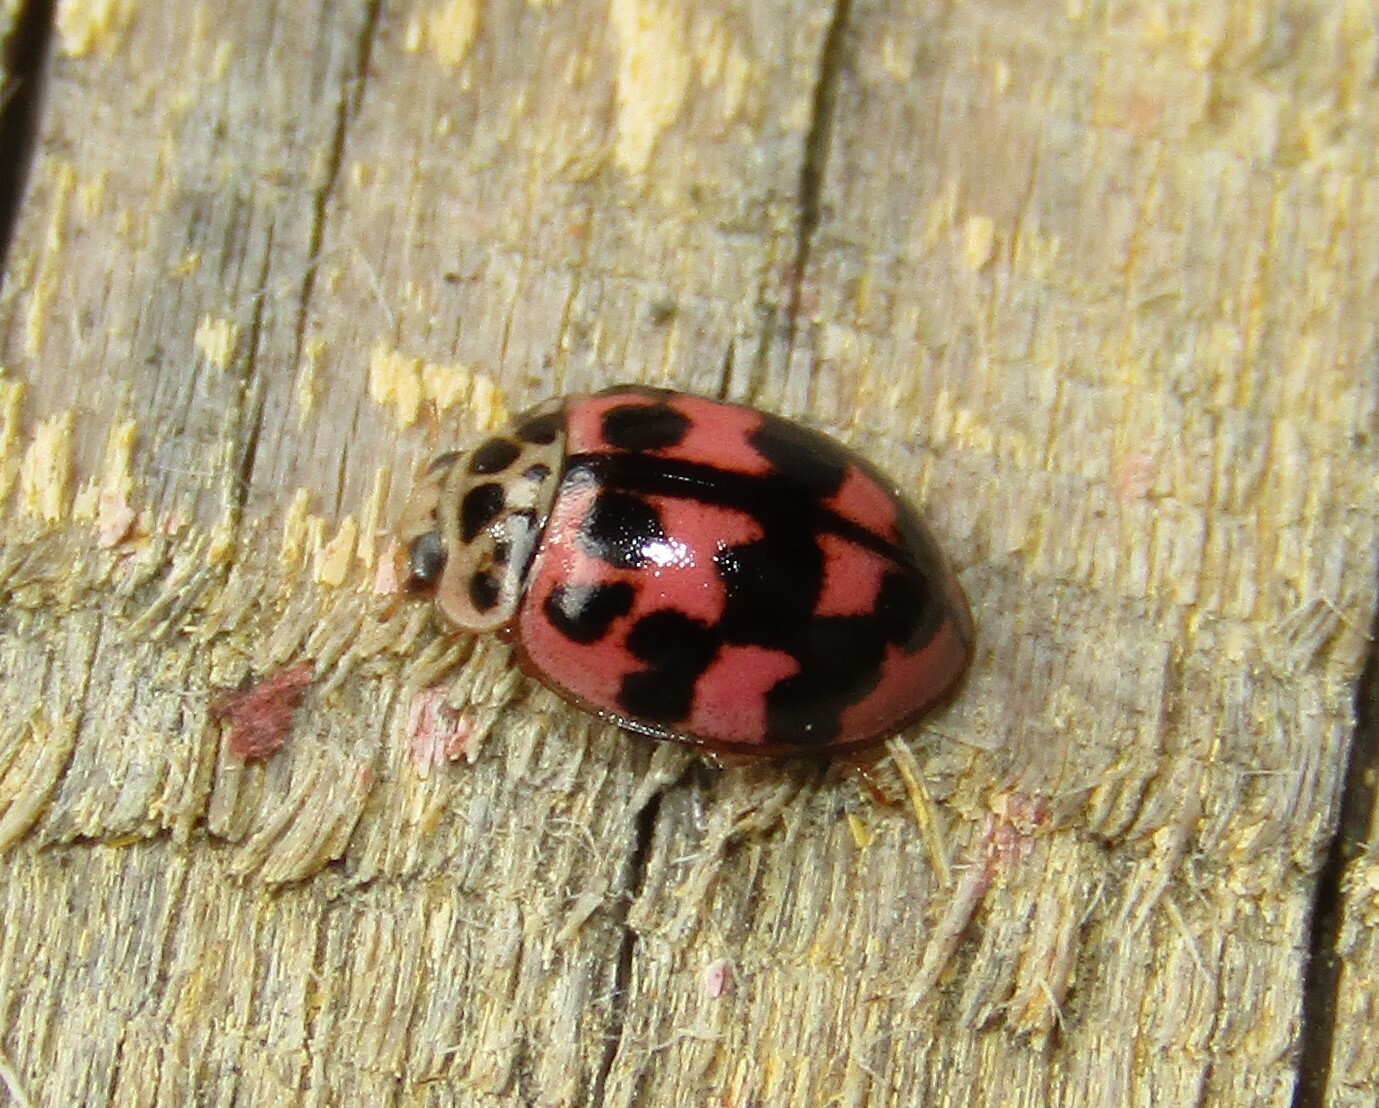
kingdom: Animalia
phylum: Arthropoda
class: Insecta
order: Coleoptera
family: Coccinellidae
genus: Oenopia
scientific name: Oenopia conglobata
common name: Ladybird beetle
